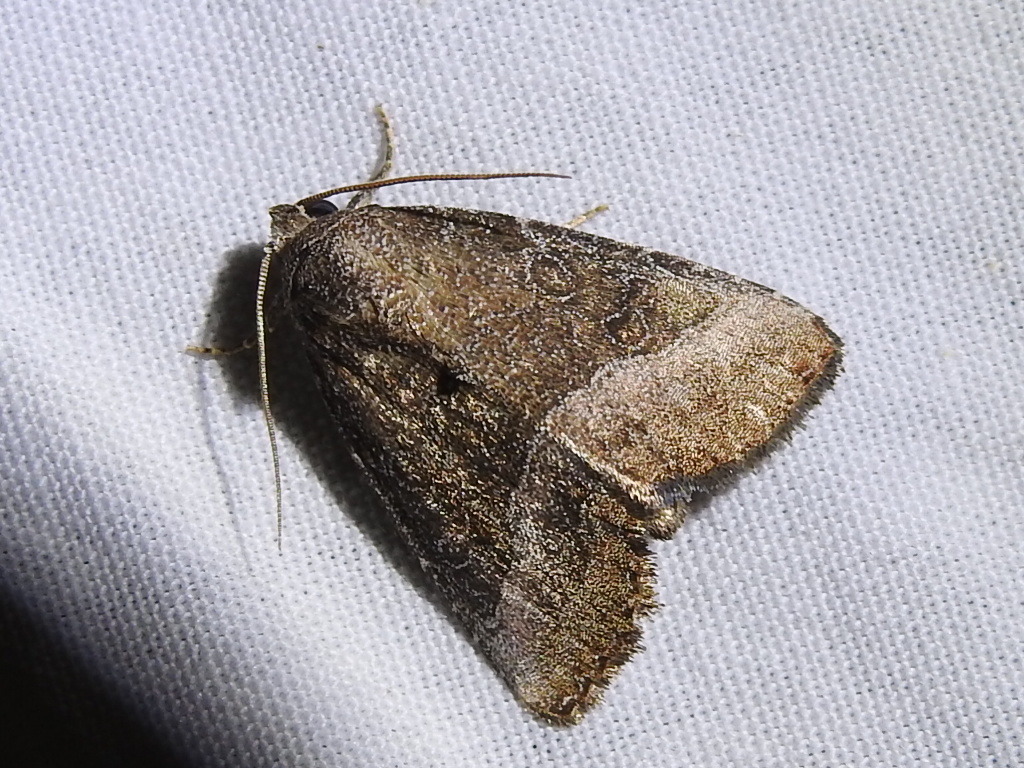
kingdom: Animalia
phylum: Arthropoda
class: Insecta
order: Lepidoptera
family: Noctuidae
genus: Ogdoconta
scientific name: Ogdoconta cinereola
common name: Common pinkband
